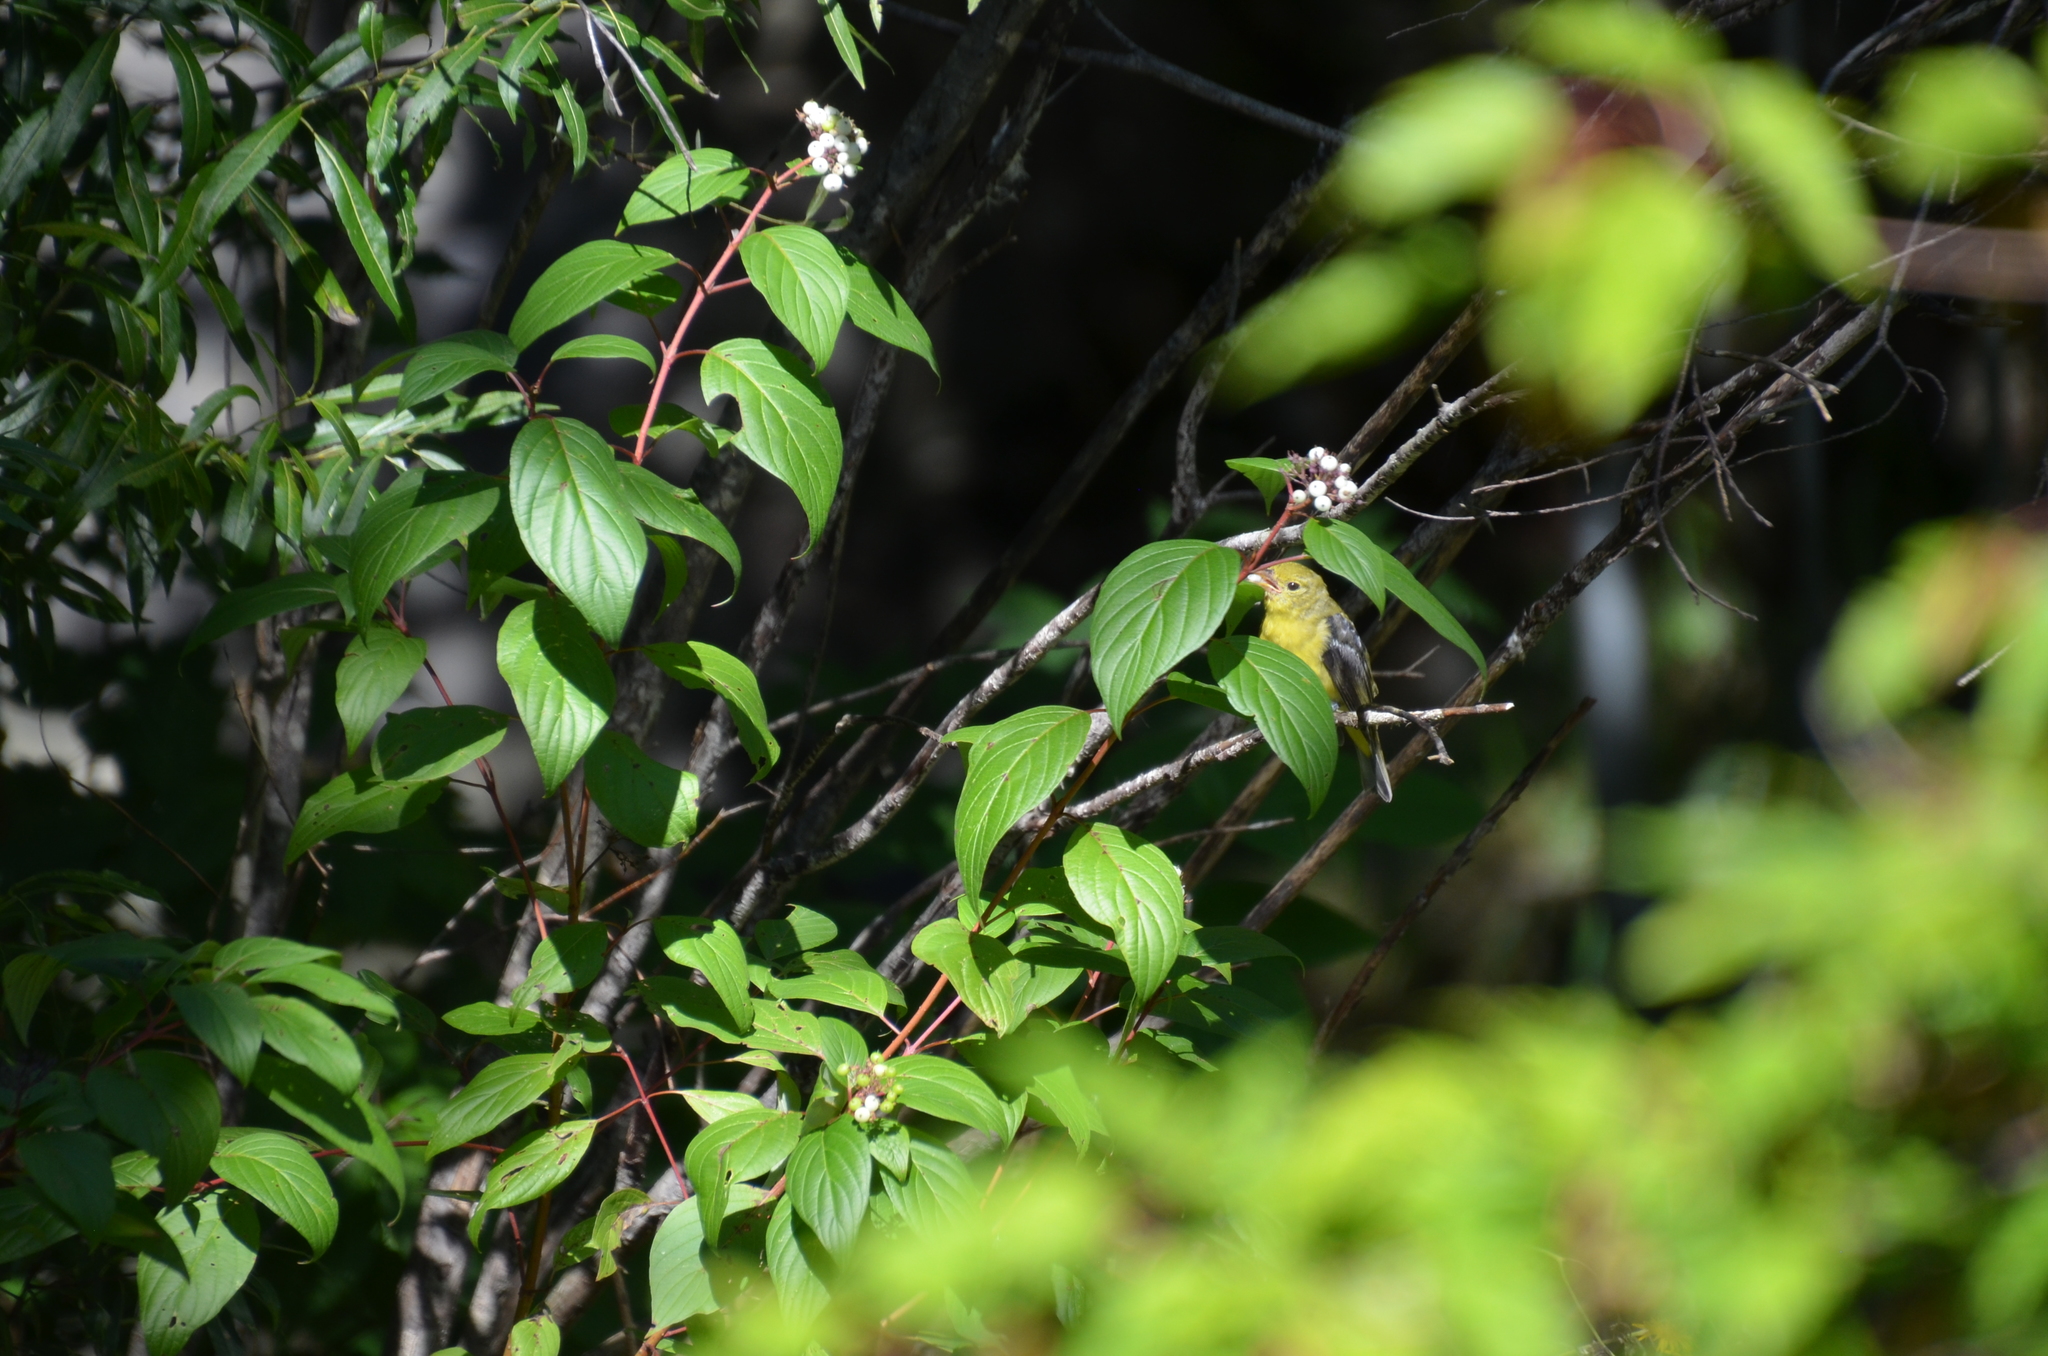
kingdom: Animalia
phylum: Chordata
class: Aves
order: Passeriformes
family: Cardinalidae
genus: Piranga
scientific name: Piranga olivacea
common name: Scarlet tanager
